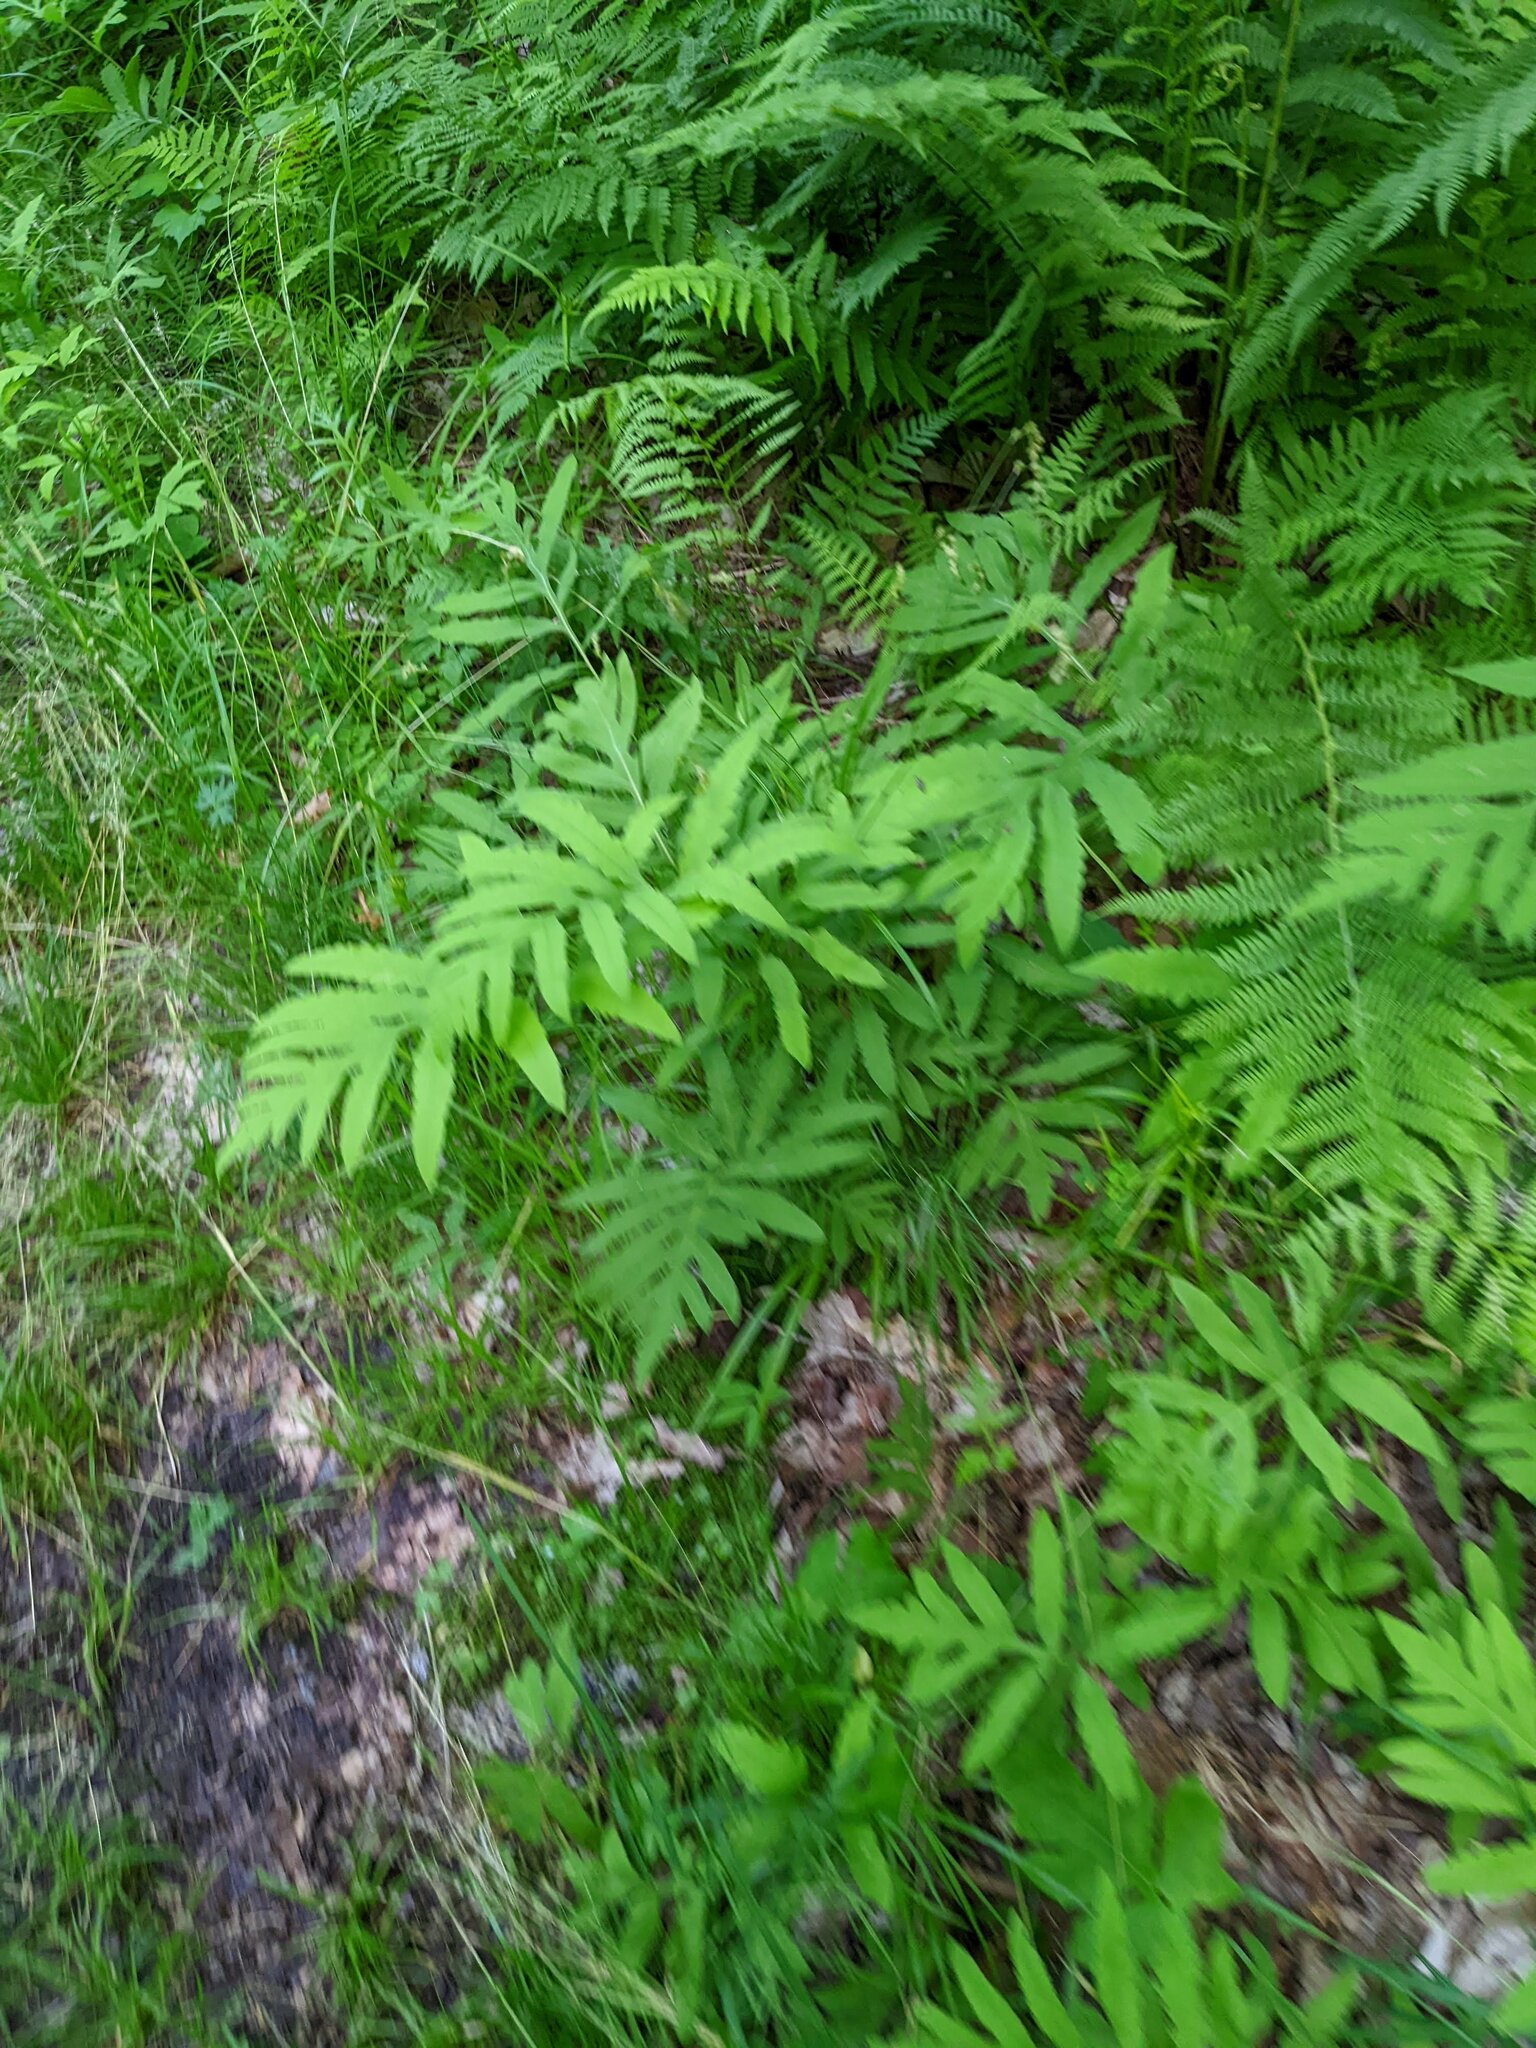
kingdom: Plantae
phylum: Tracheophyta
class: Polypodiopsida
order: Polypodiales
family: Onocleaceae
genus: Onoclea
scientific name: Onoclea sensibilis
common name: Sensitive fern
